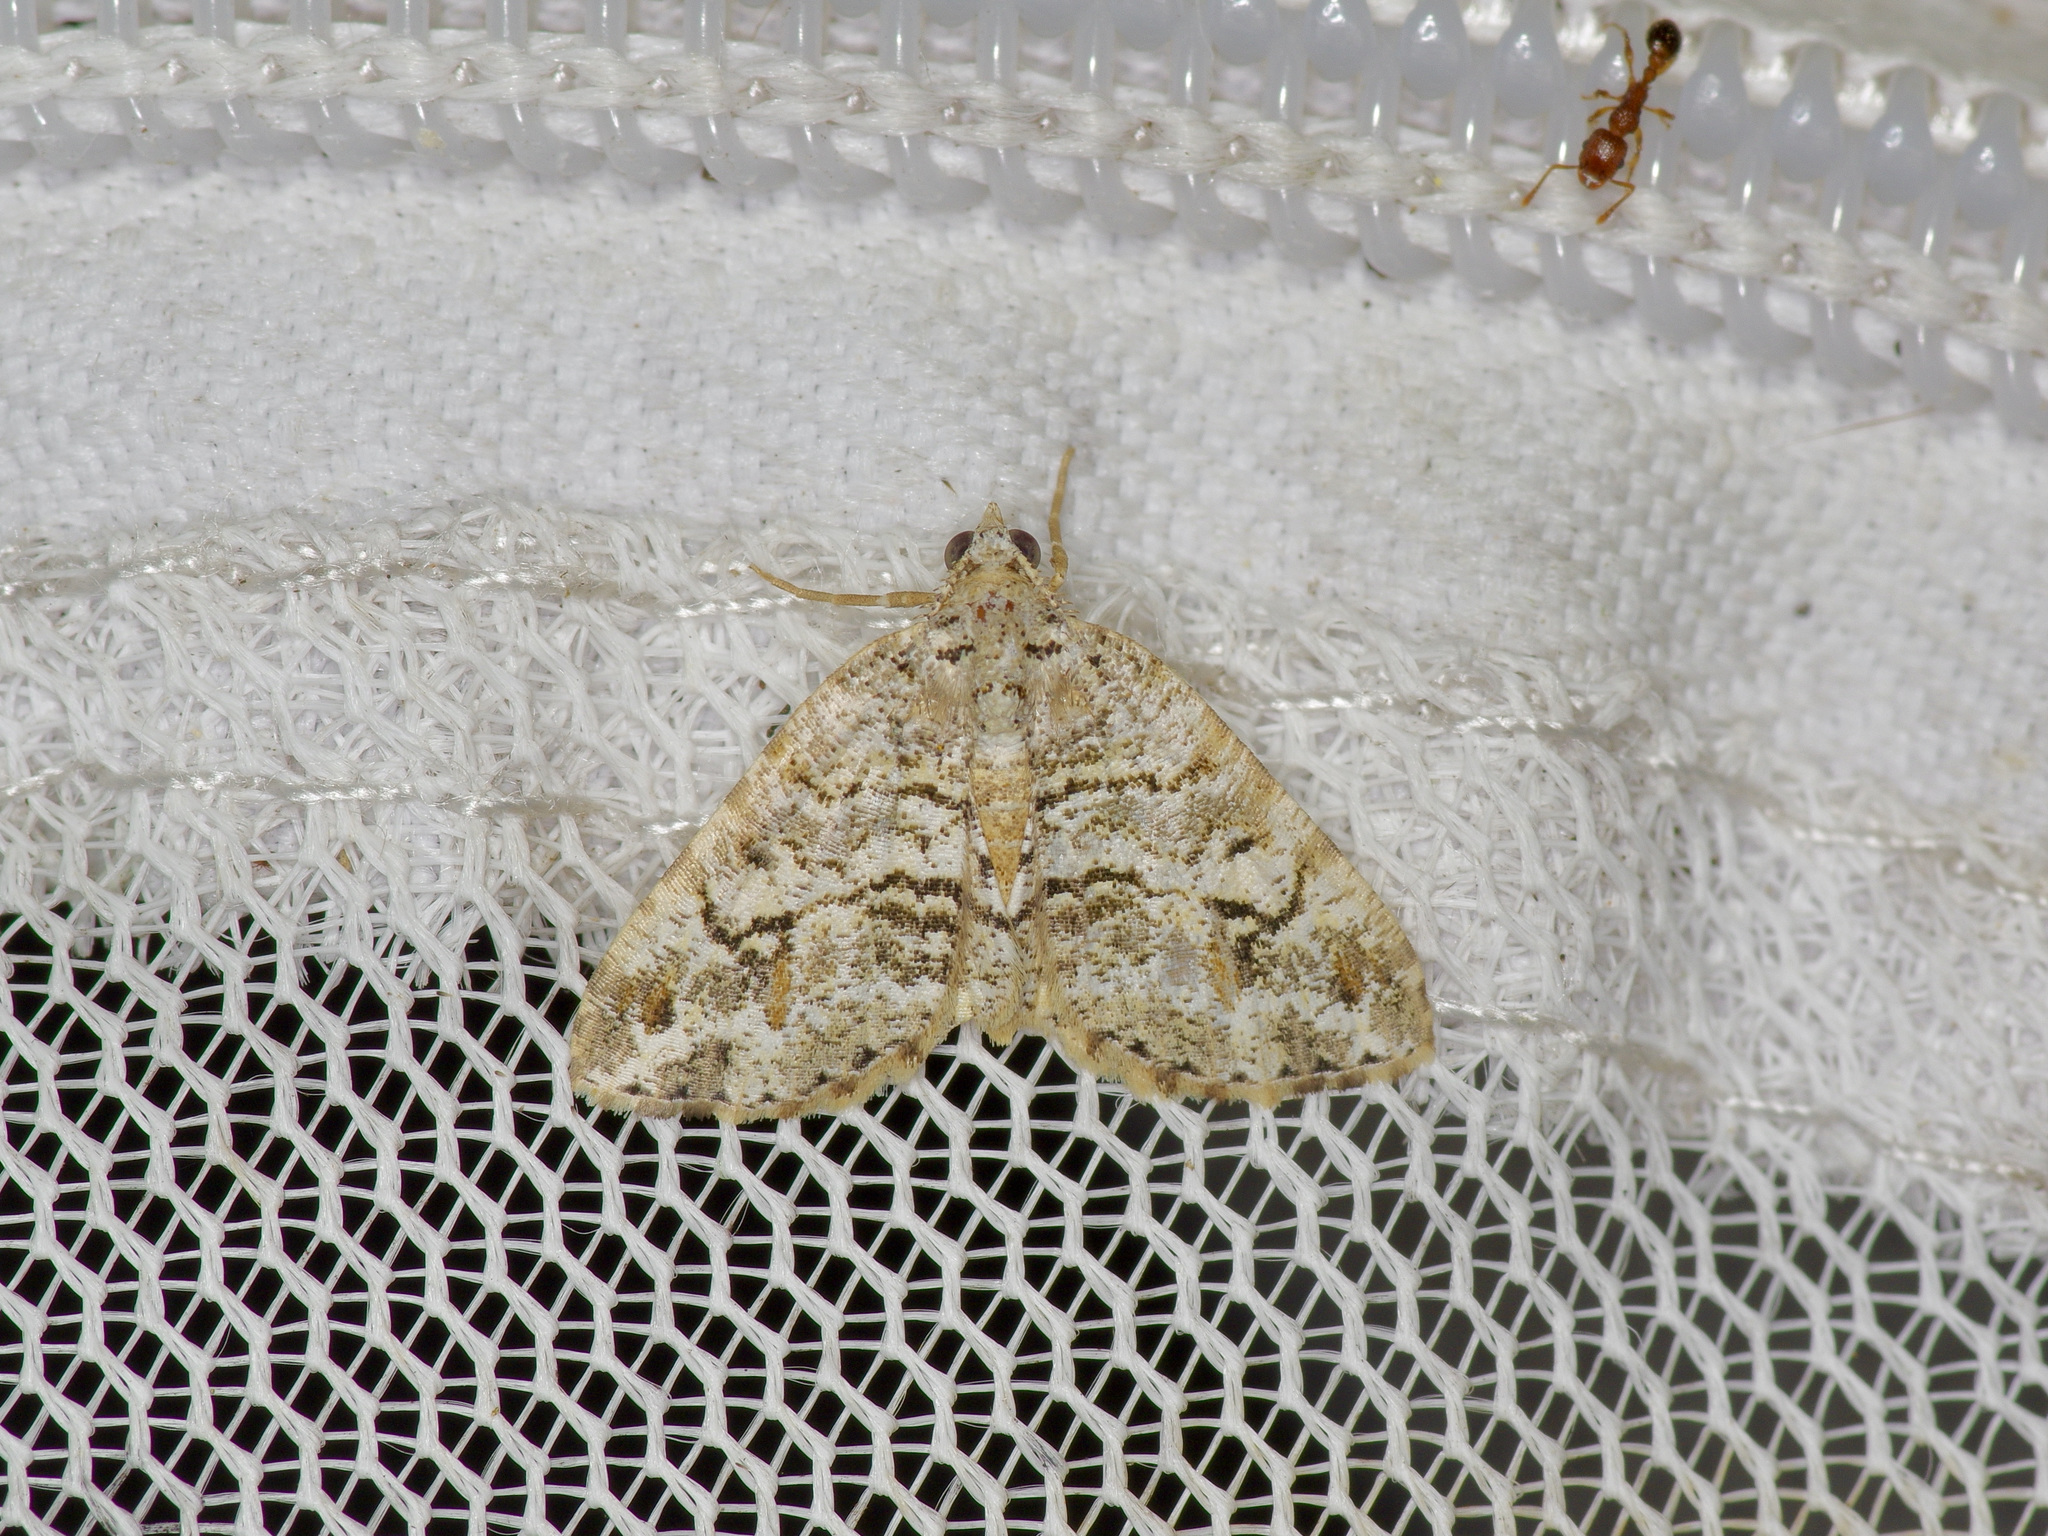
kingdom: Animalia
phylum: Arthropoda
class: Insecta
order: Lepidoptera
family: Geometridae
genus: Macaria
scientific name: Macaria graphidaria
